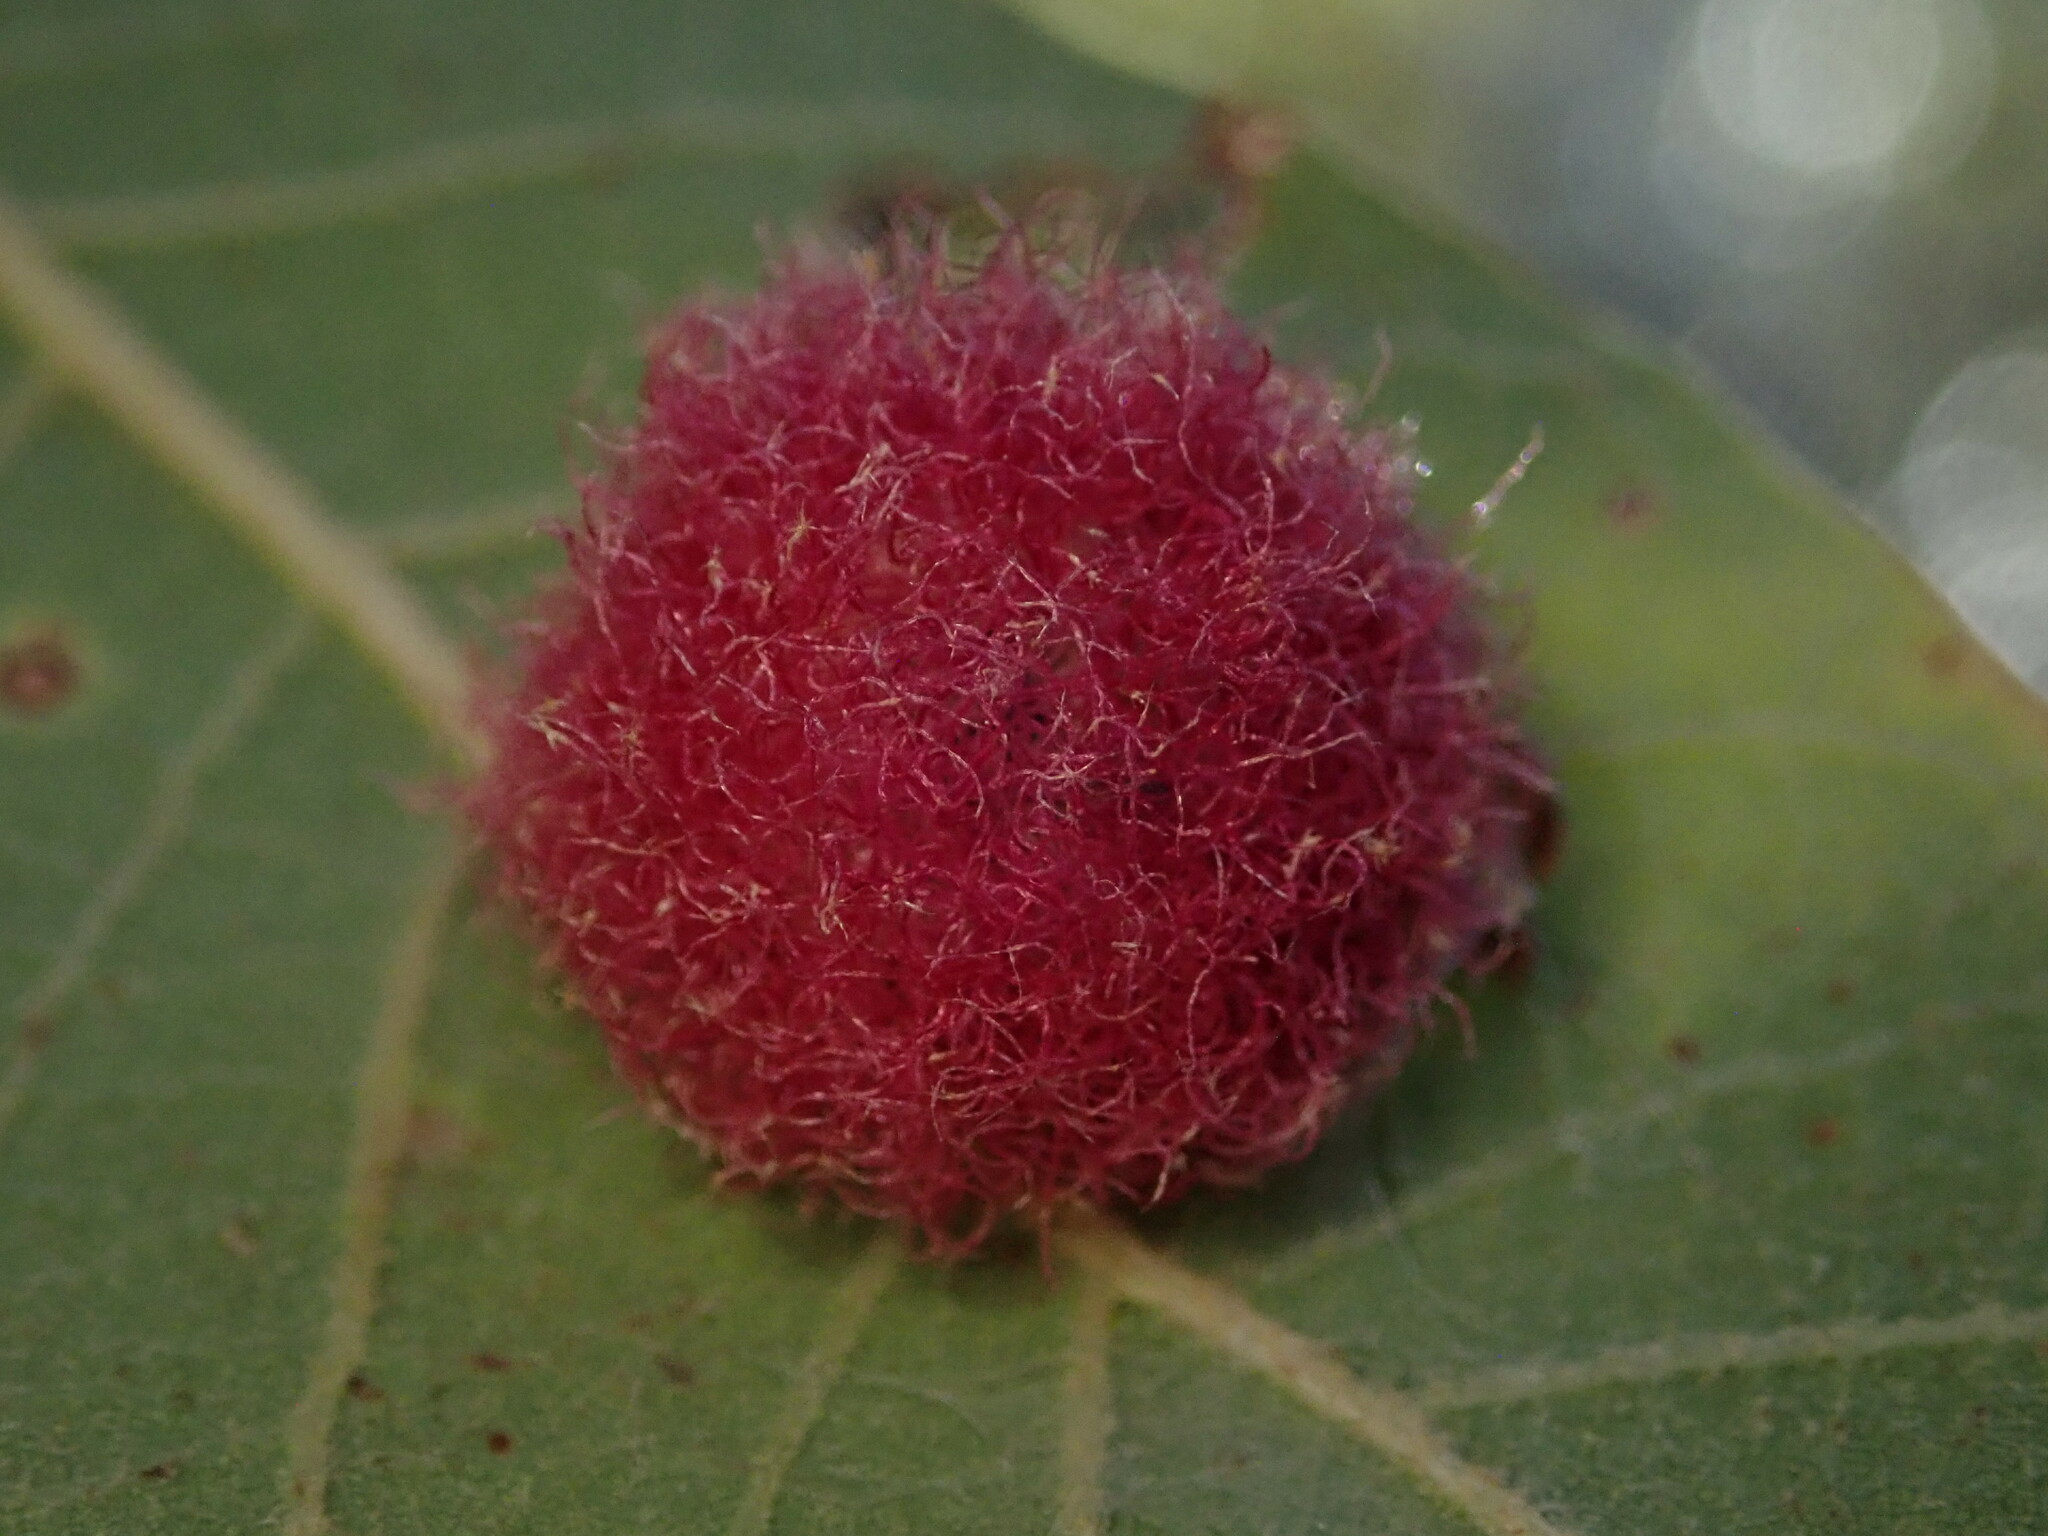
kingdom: Animalia
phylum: Arthropoda
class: Insecta
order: Hymenoptera
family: Cynipidae
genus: Cynips
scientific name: Cynips
